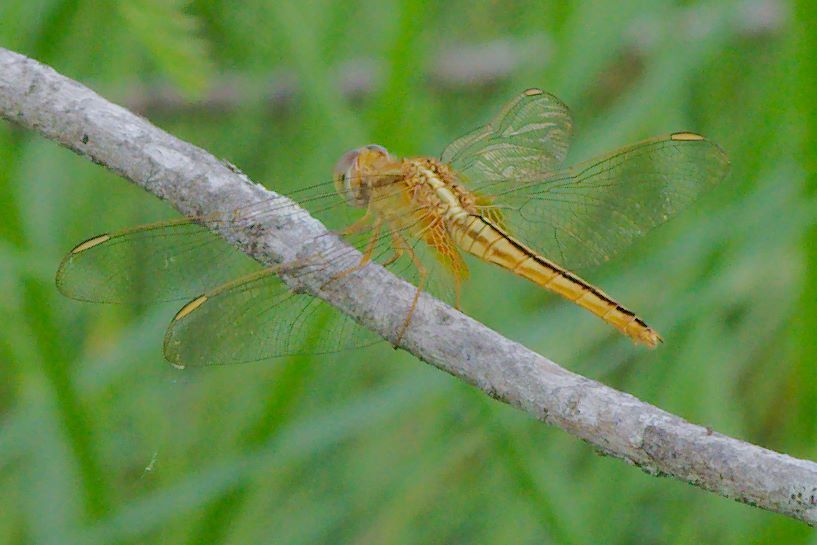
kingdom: Animalia
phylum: Arthropoda
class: Insecta
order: Odonata
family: Libellulidae
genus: Crocothemis
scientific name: Crocothemis servilia
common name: Scarlet skimmer
